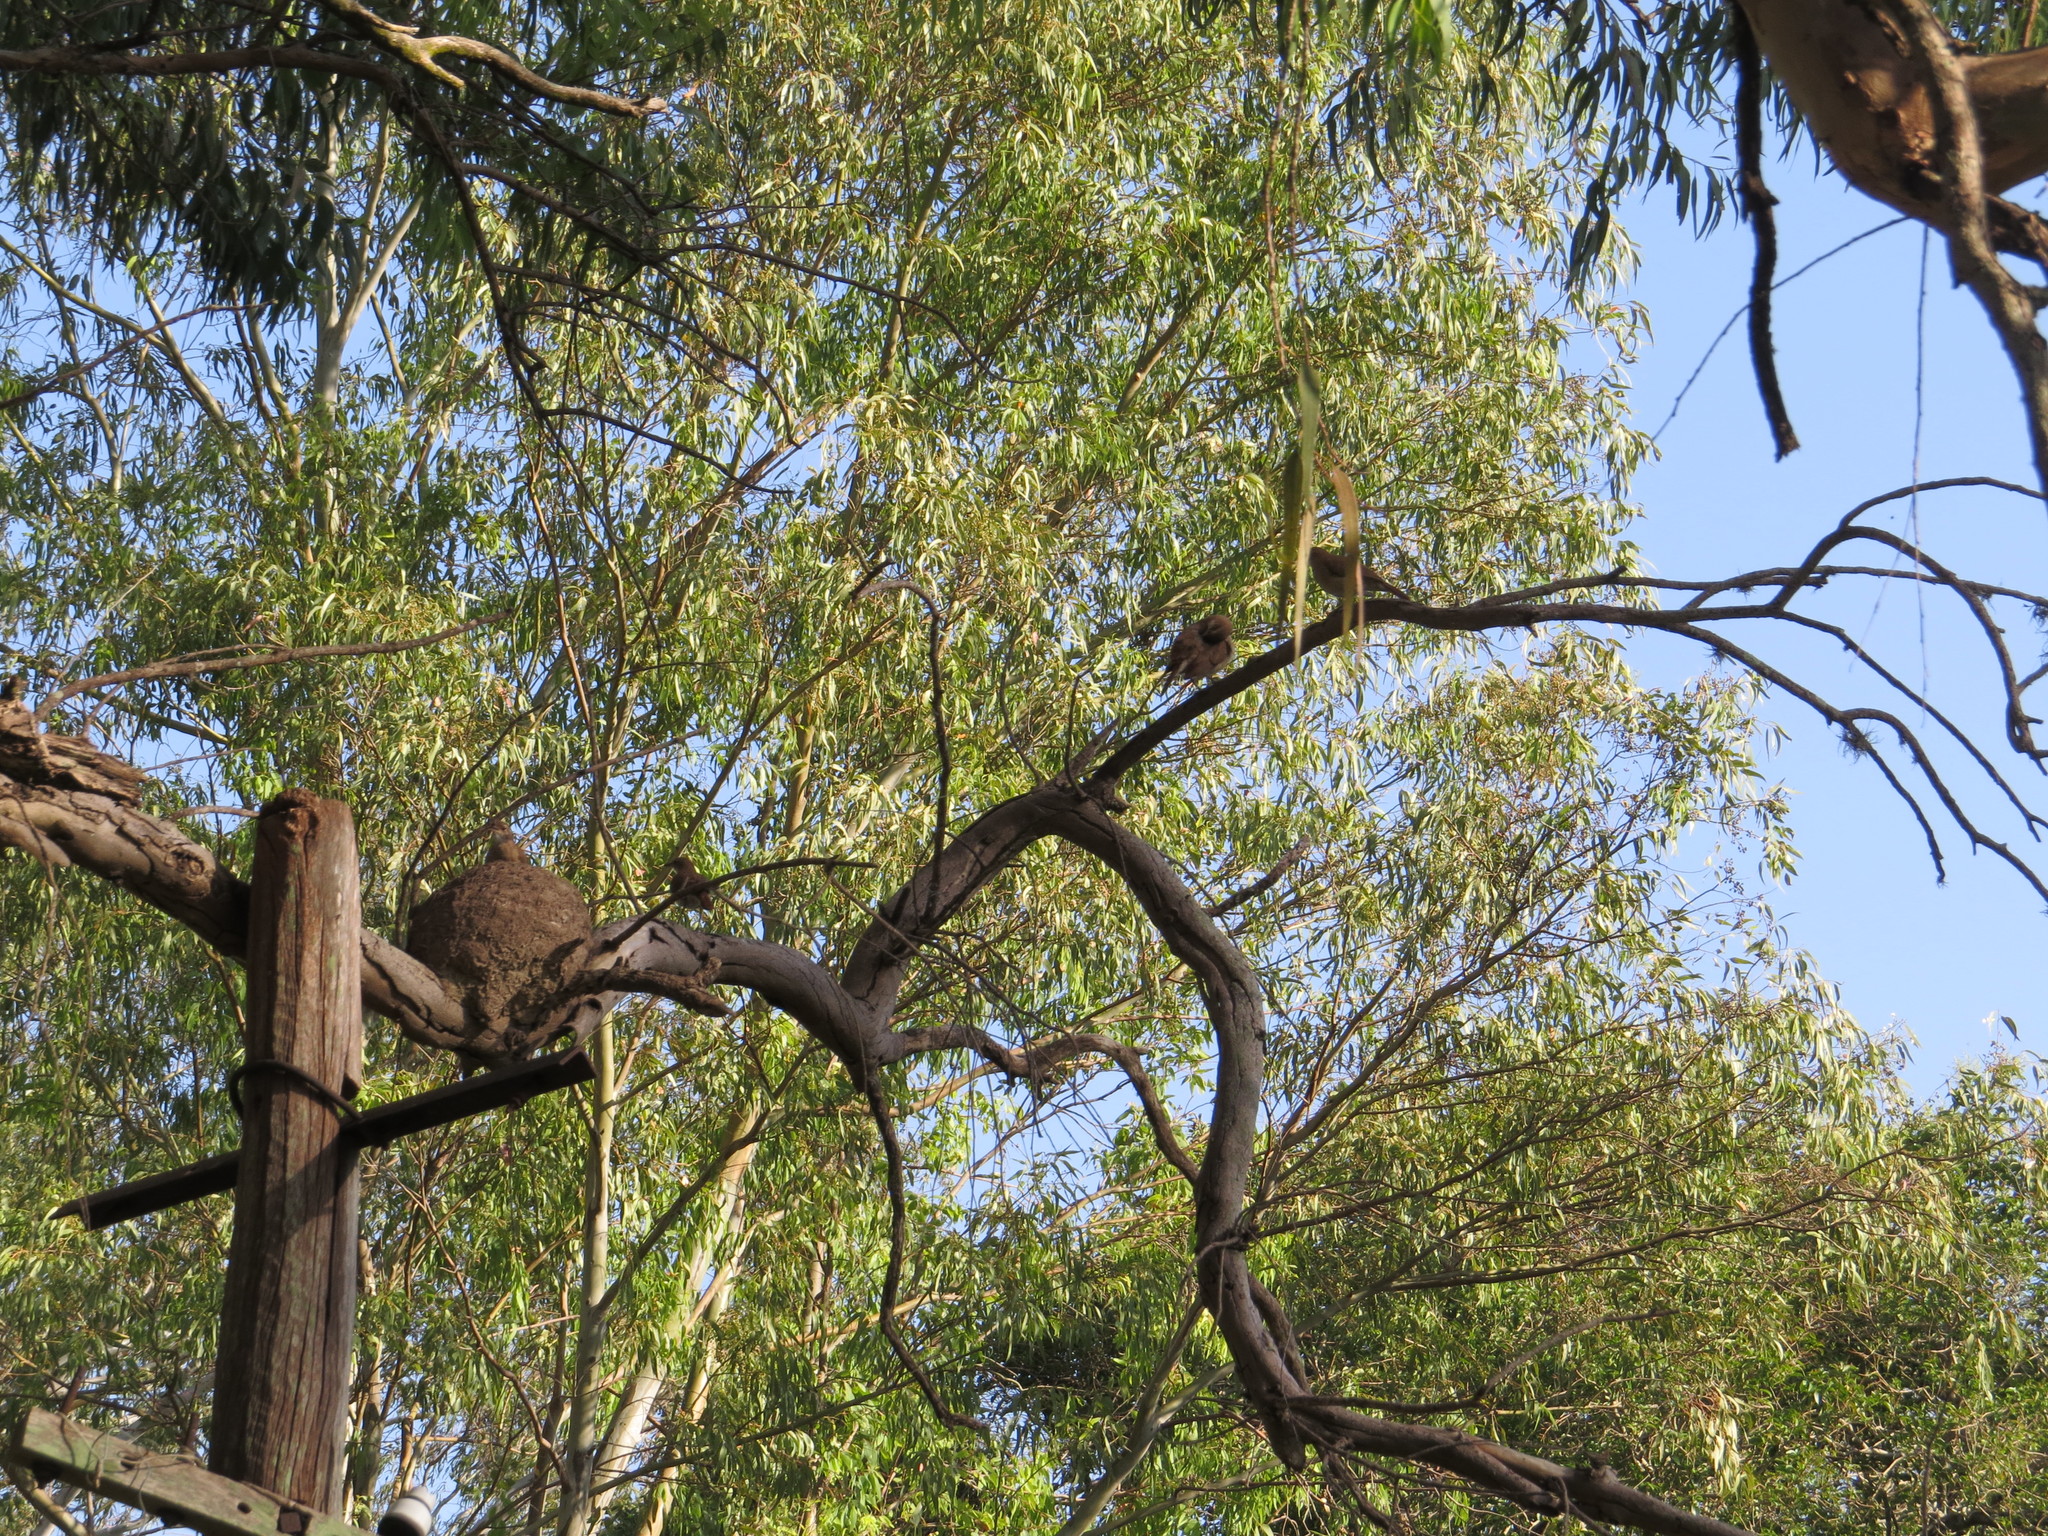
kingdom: Animalia
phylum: Chordata
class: Aves
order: Passeriformes
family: Furnariidae
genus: Furnarius
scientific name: Furnarius rufus
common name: Rufous hornero
